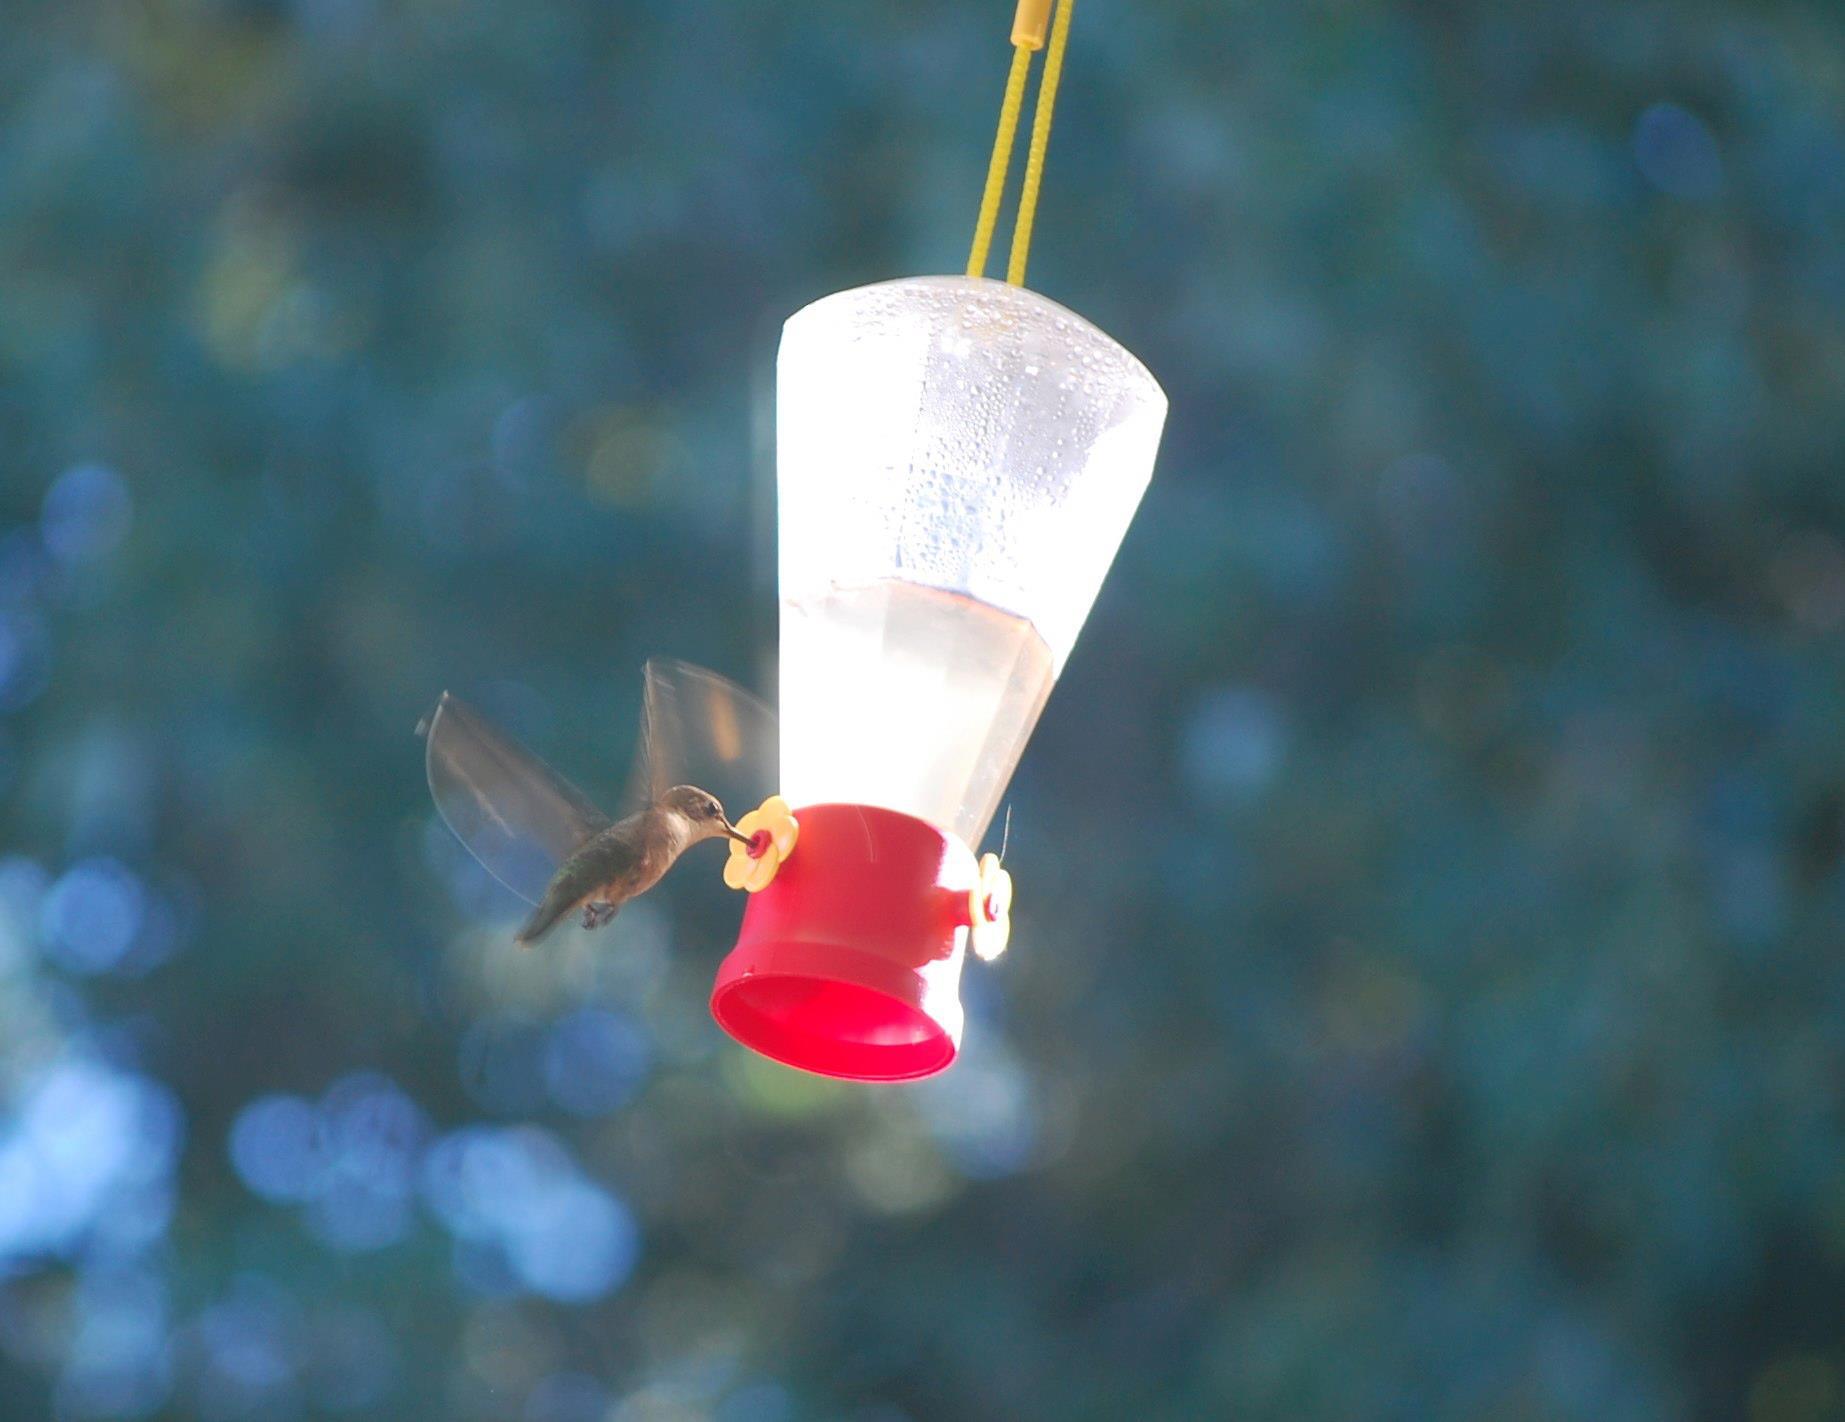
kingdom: Animalia
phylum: Chordata
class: Aves
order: Apodiformes
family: Trochilidae
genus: Archilochus
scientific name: Archilochus colubris
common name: Ruby-throated hummingbird
